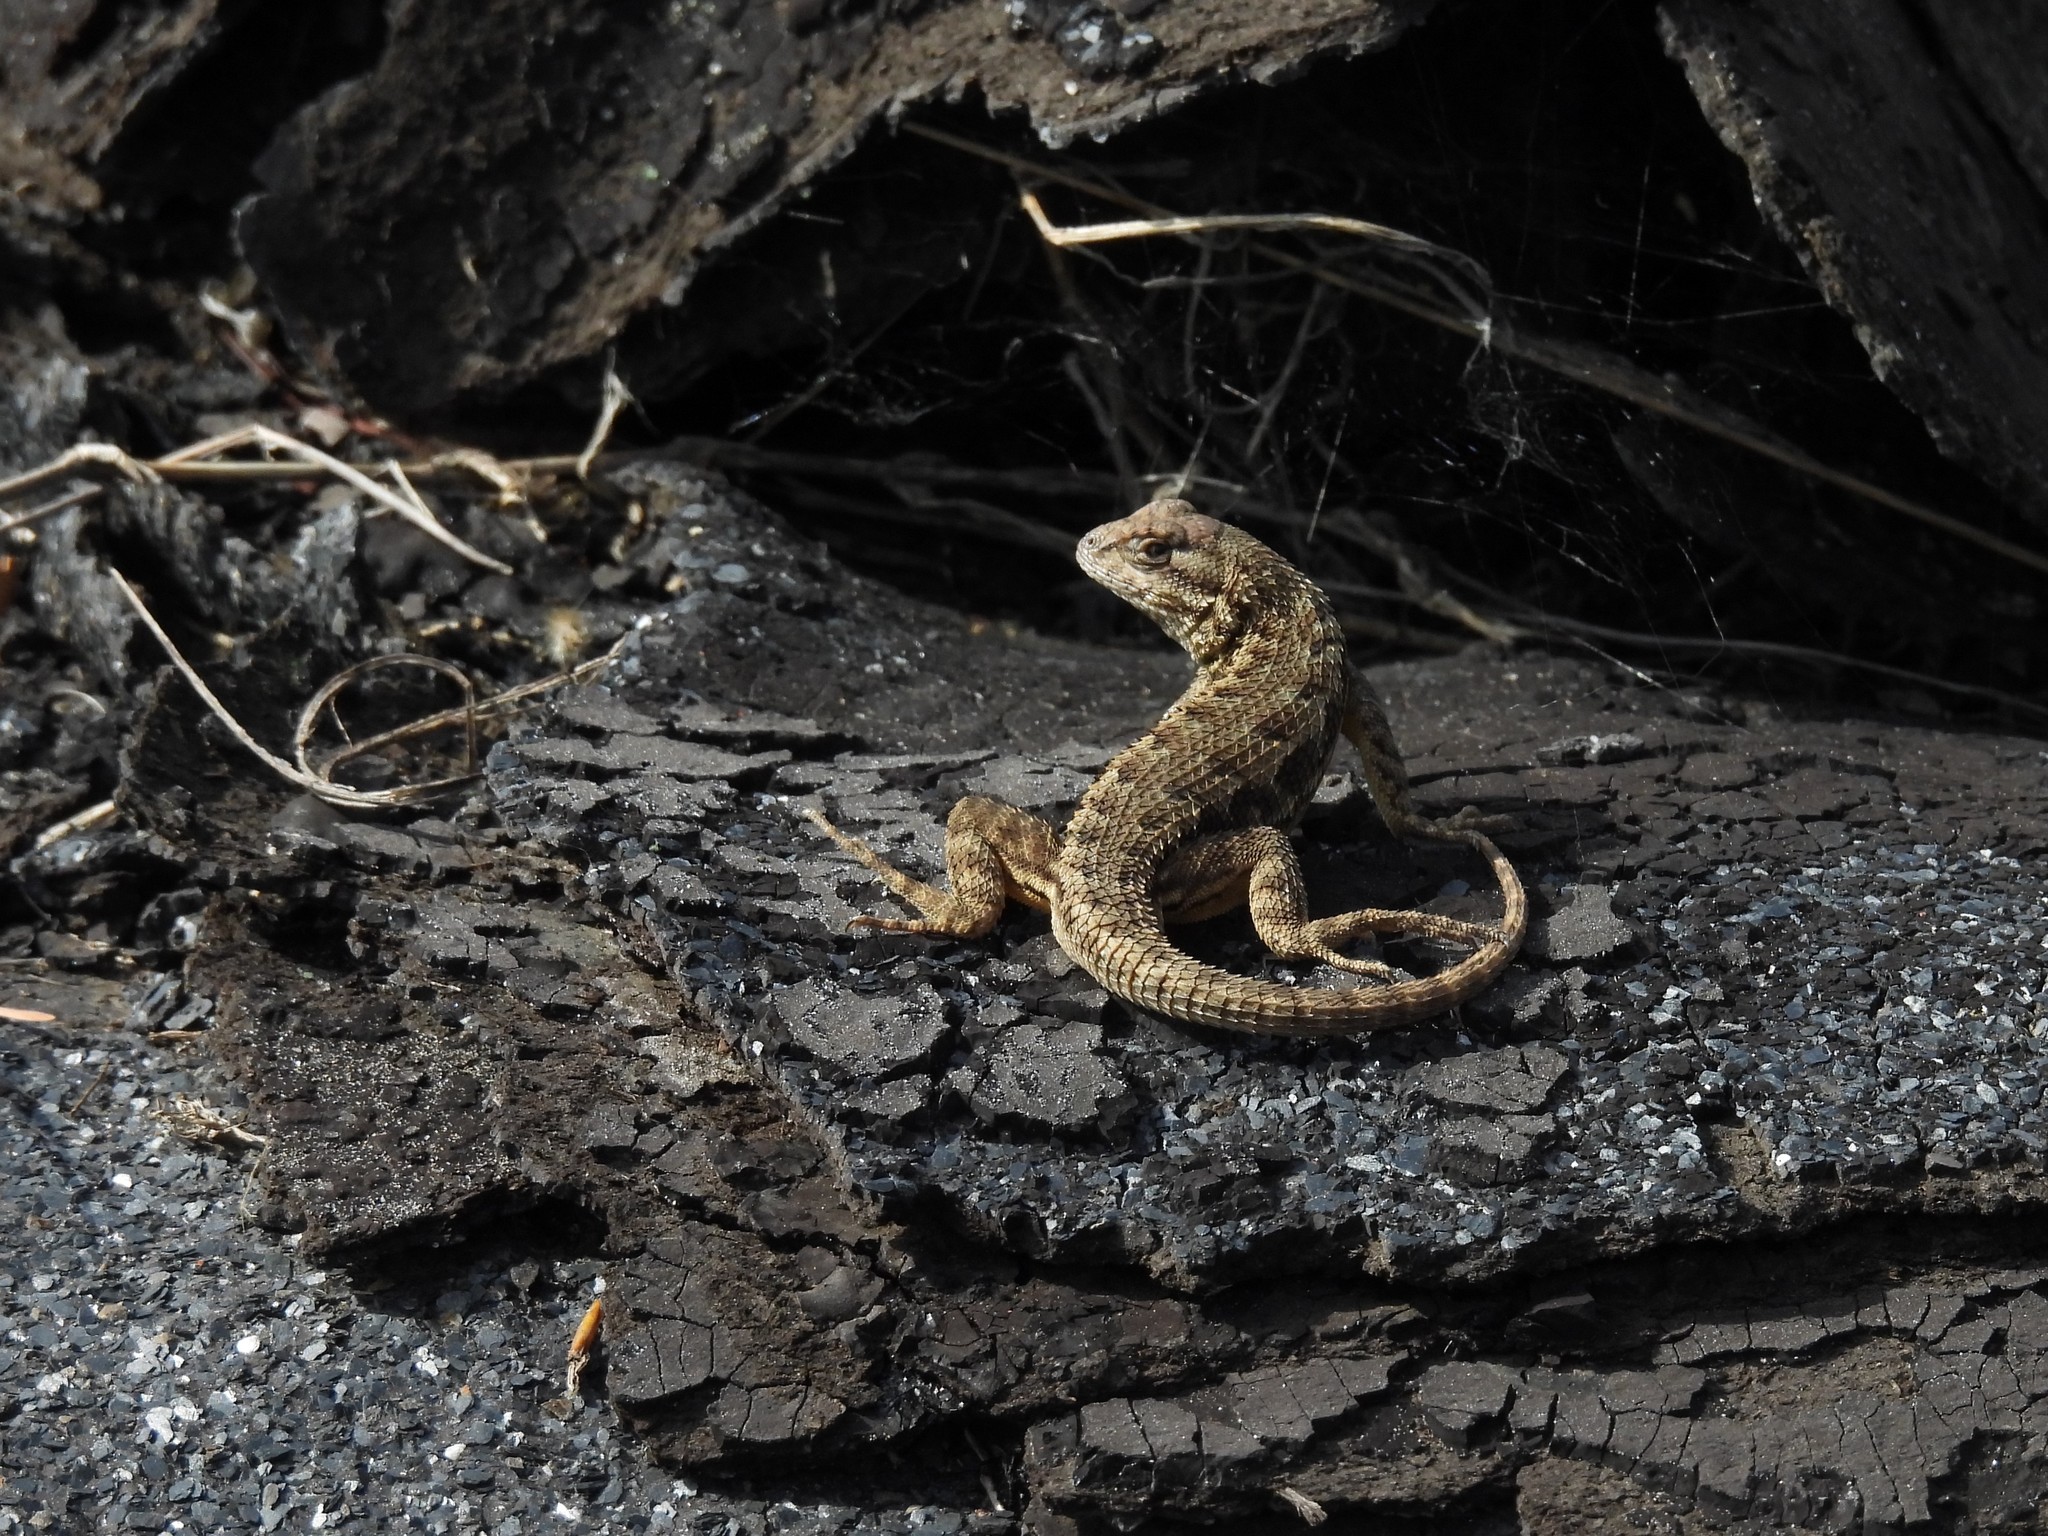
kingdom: Animalia
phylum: Chordata
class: Squamata
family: Phrynosomatidae
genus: Sceloporus
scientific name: Sceloporus occidentalis
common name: Western fence lizard
